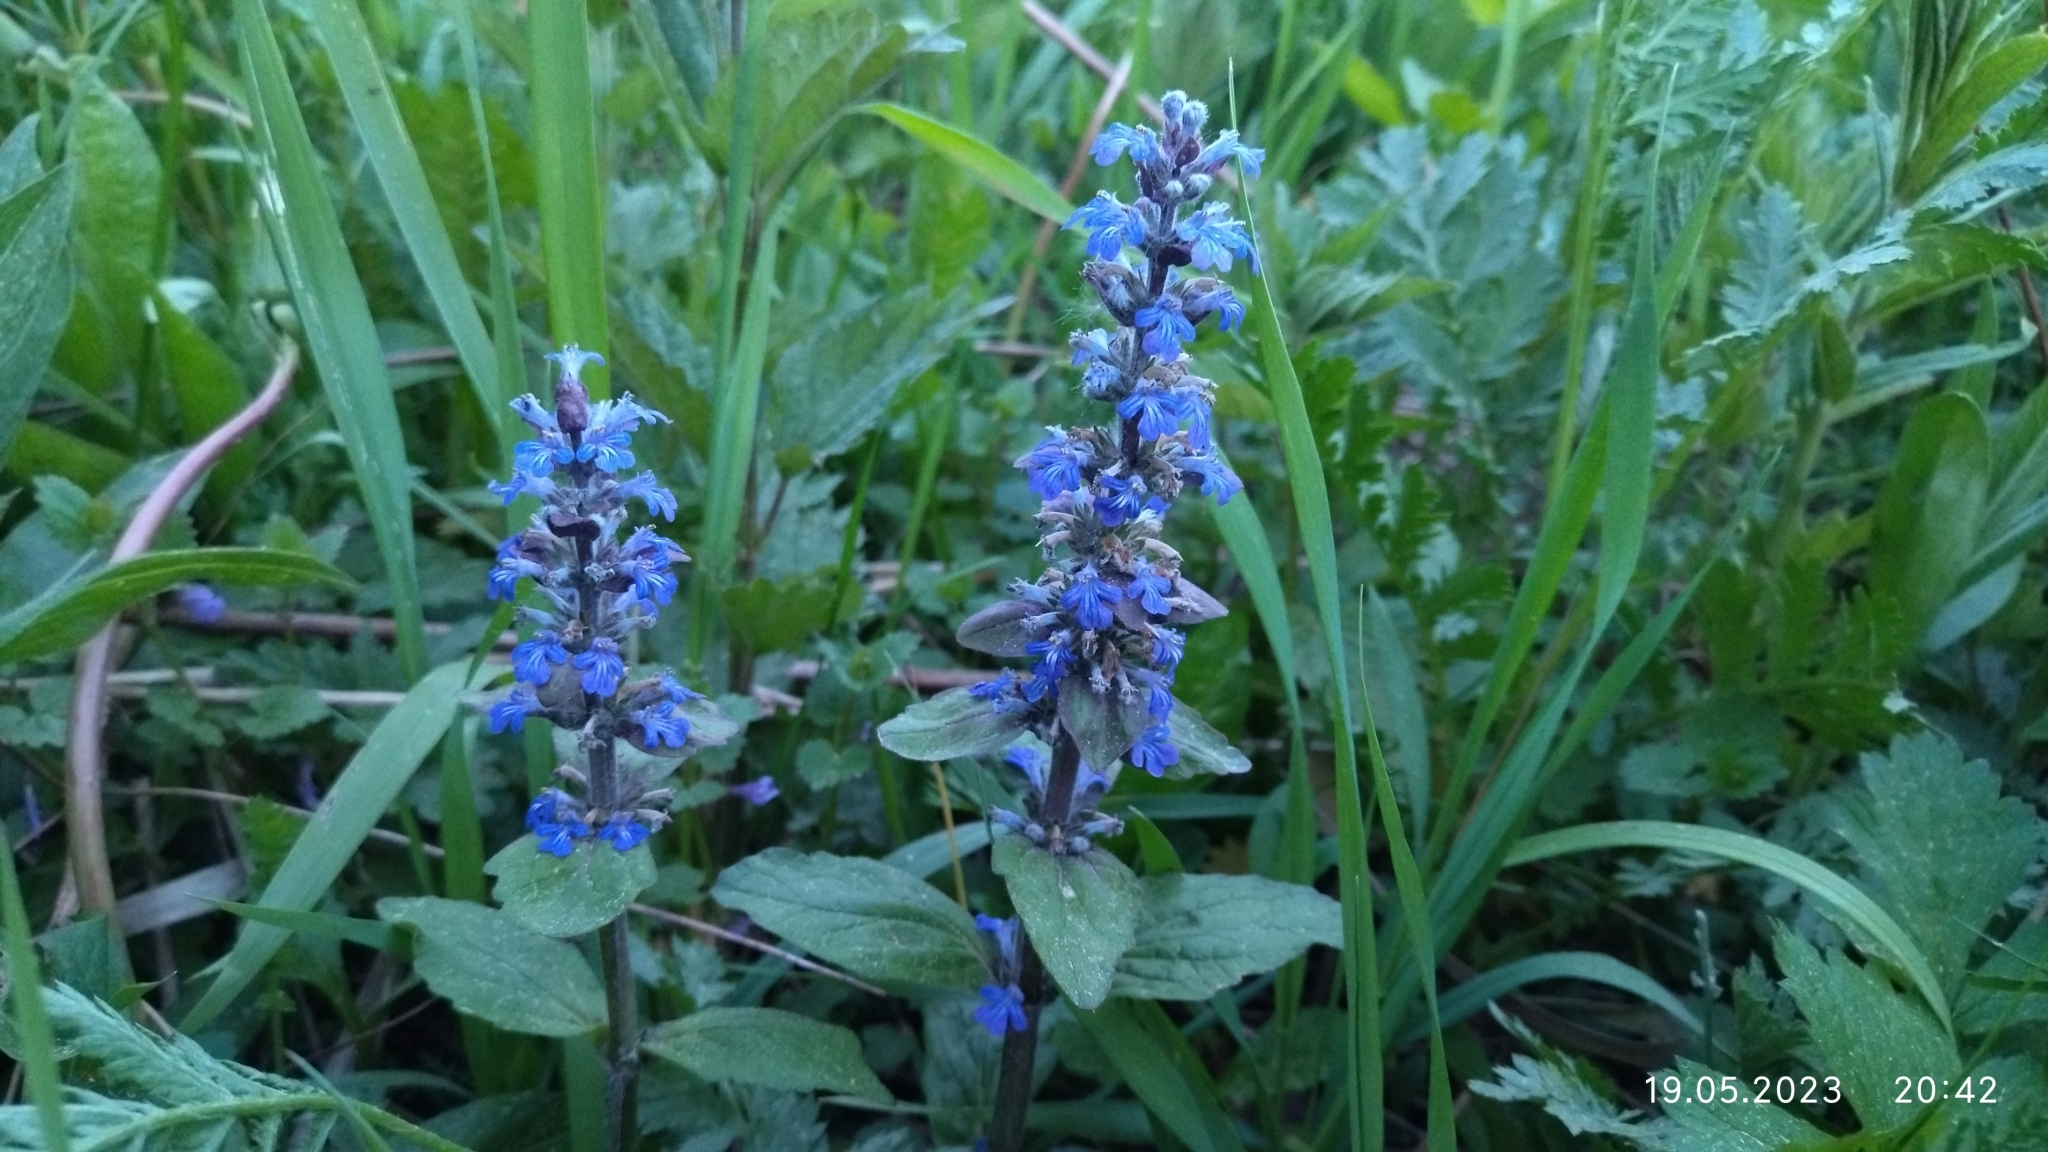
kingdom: Plantae
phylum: Tracheophyta
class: Magnoliopsida
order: Lamiales
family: Lamiaceae
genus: Ajuga
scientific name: Ajuga reptans
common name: Bugle
